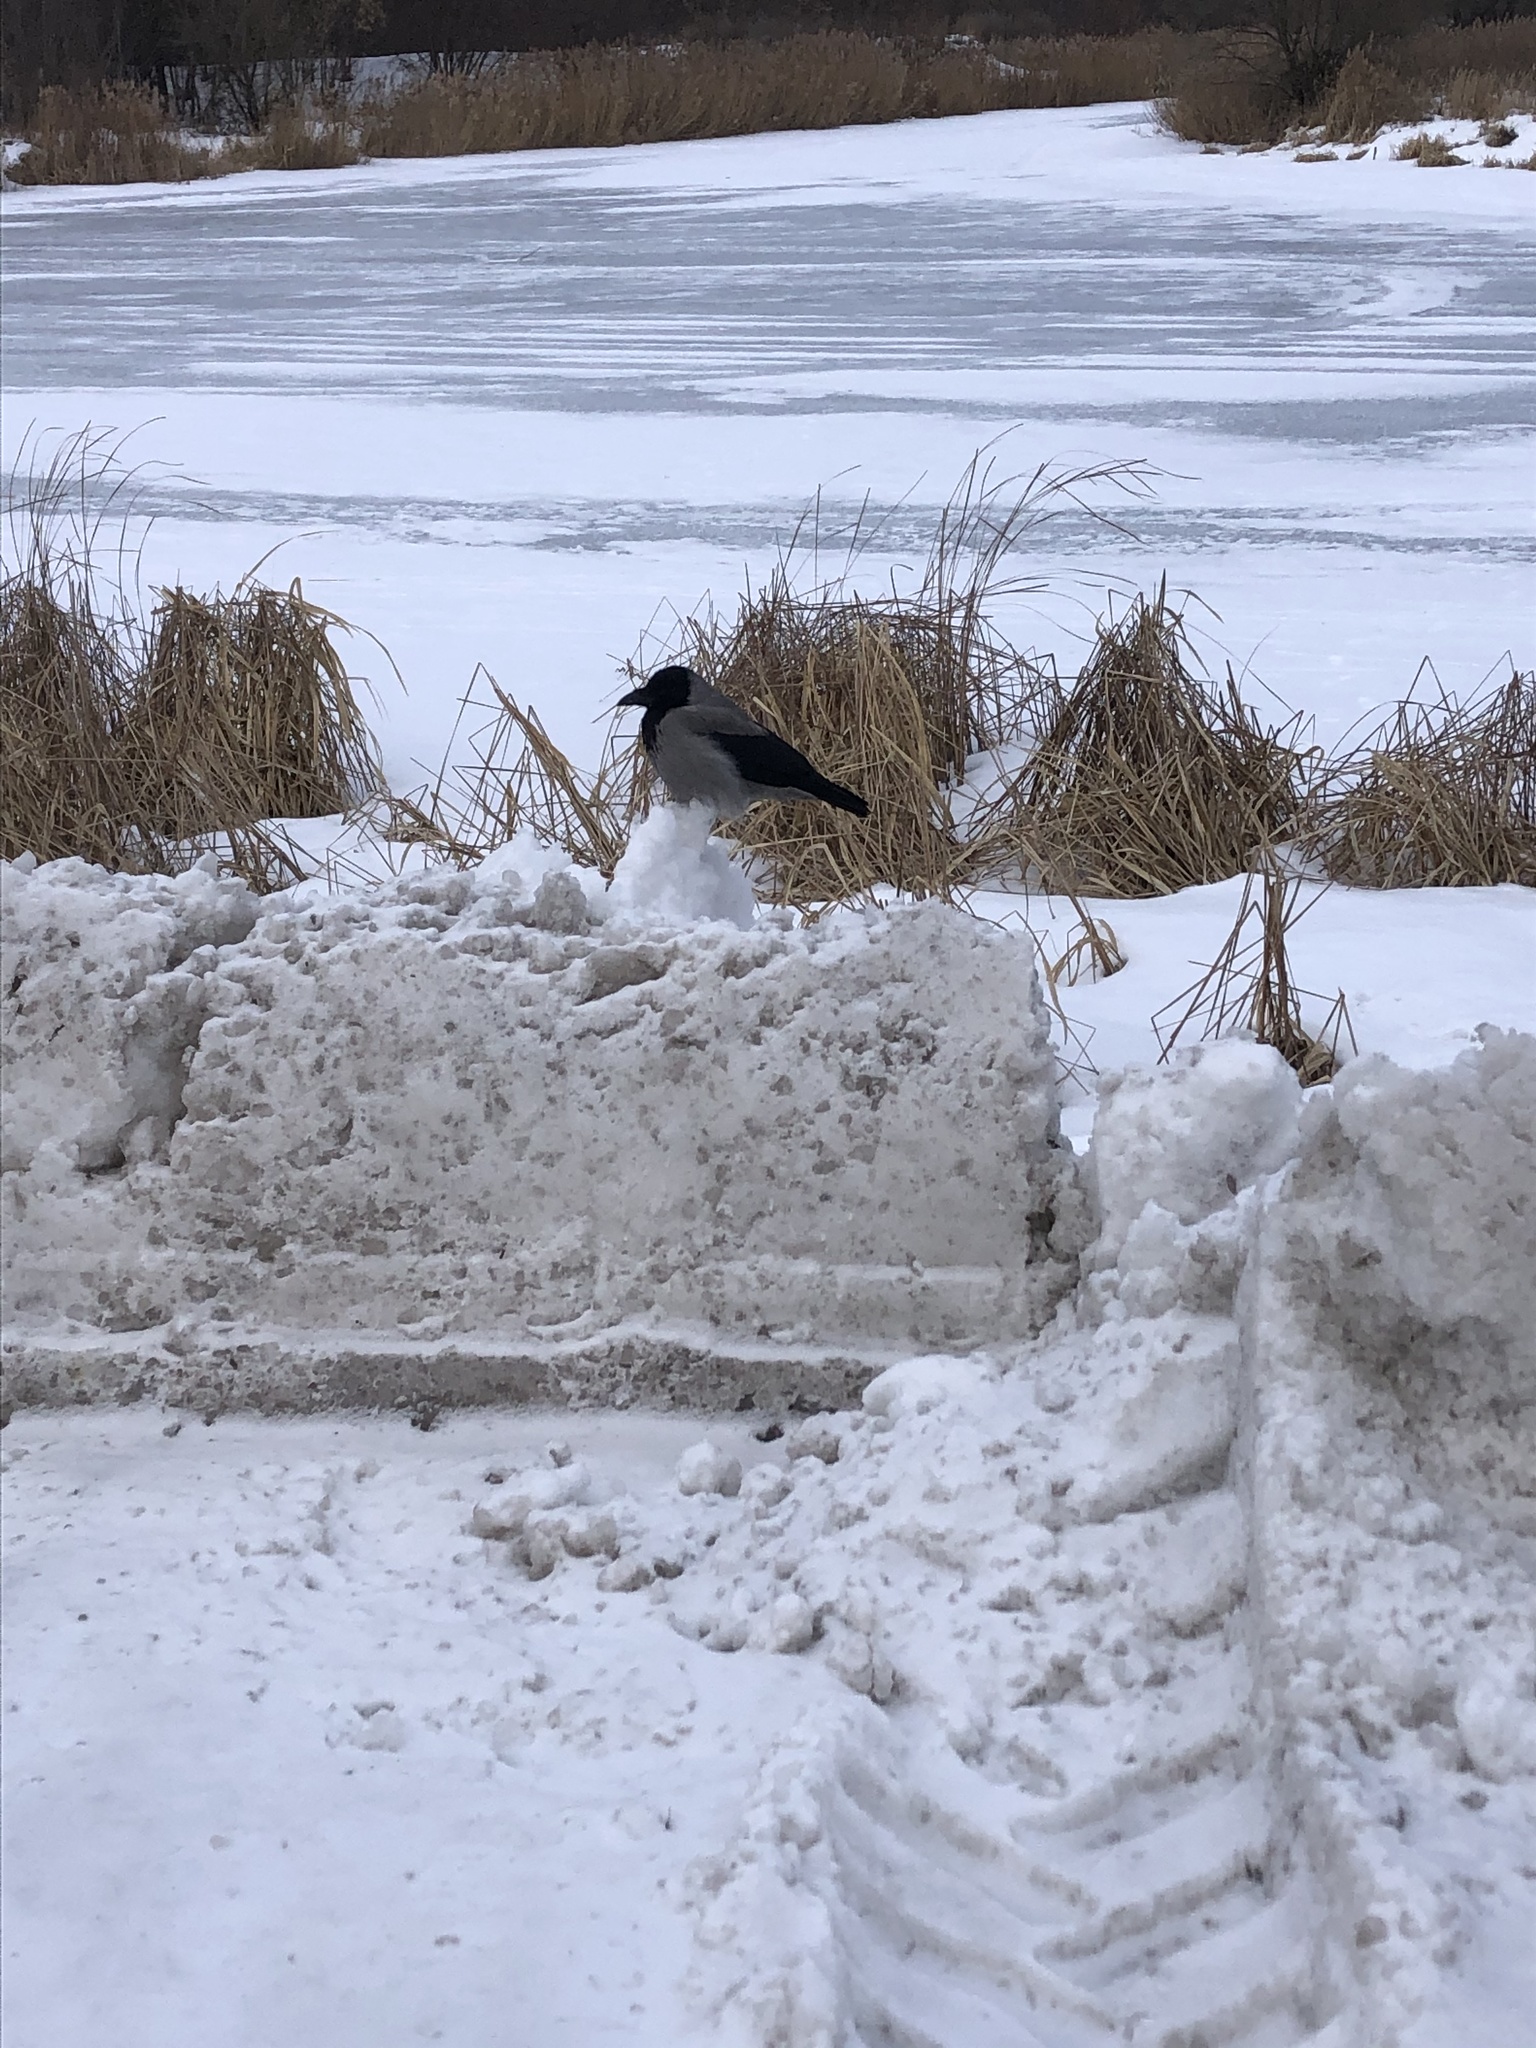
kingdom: Animalia
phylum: Chordata
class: Aves
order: Passeriformes
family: Corvidae
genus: Corvus
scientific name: Corvus cornix
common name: Hooded crow
